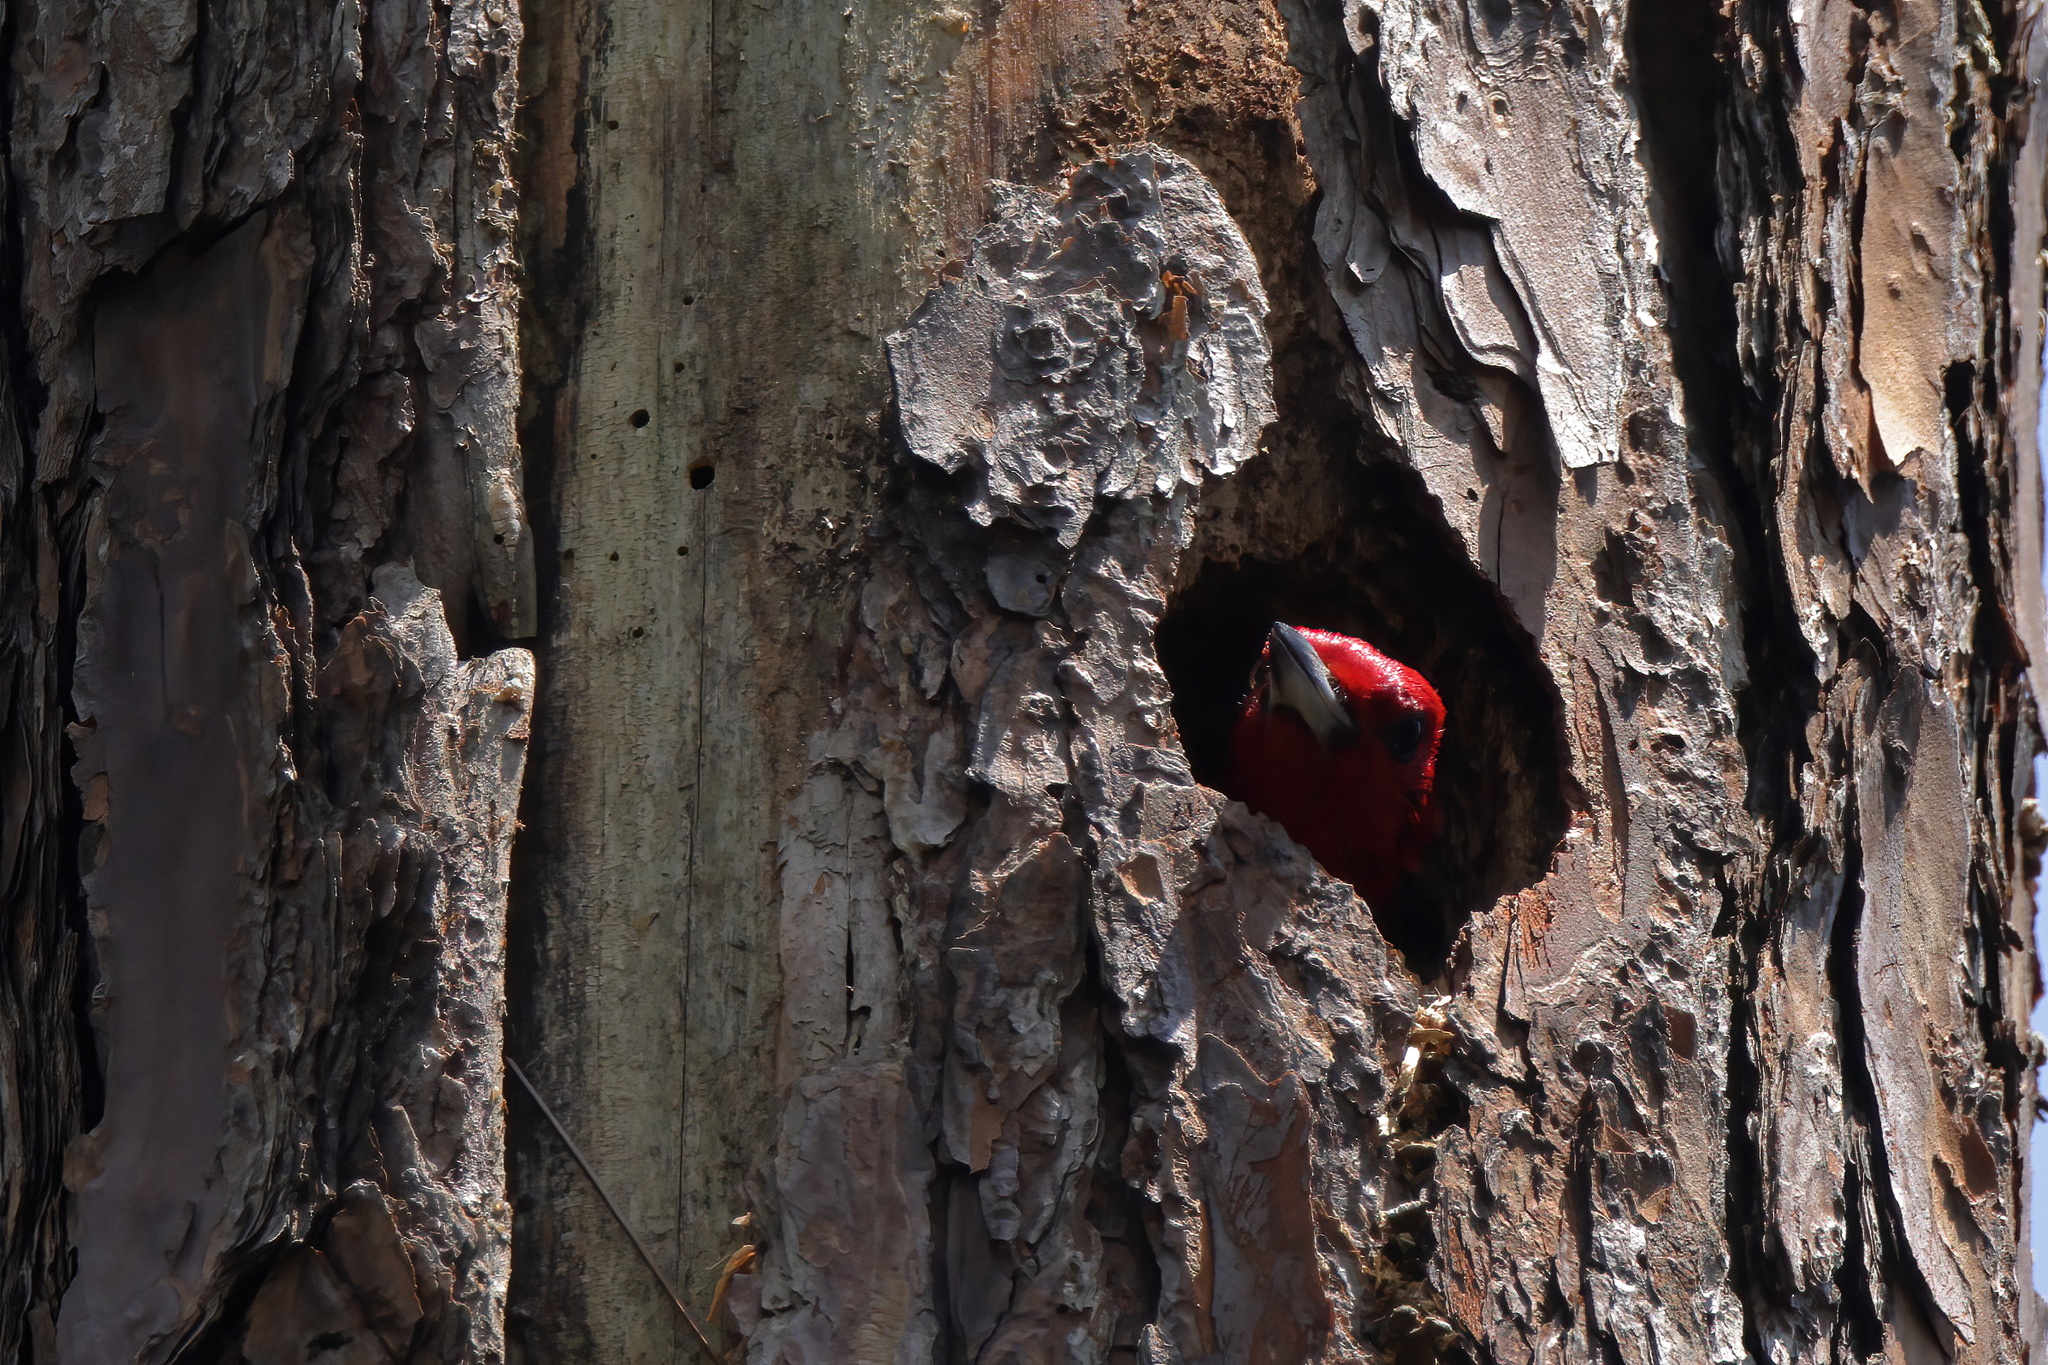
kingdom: Animalia
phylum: Chordata
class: Aves
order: Piciformes
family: Picidae
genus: Melanerpes
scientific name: Melanerpes erythrocephalus
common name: Red-headed woodpecker
